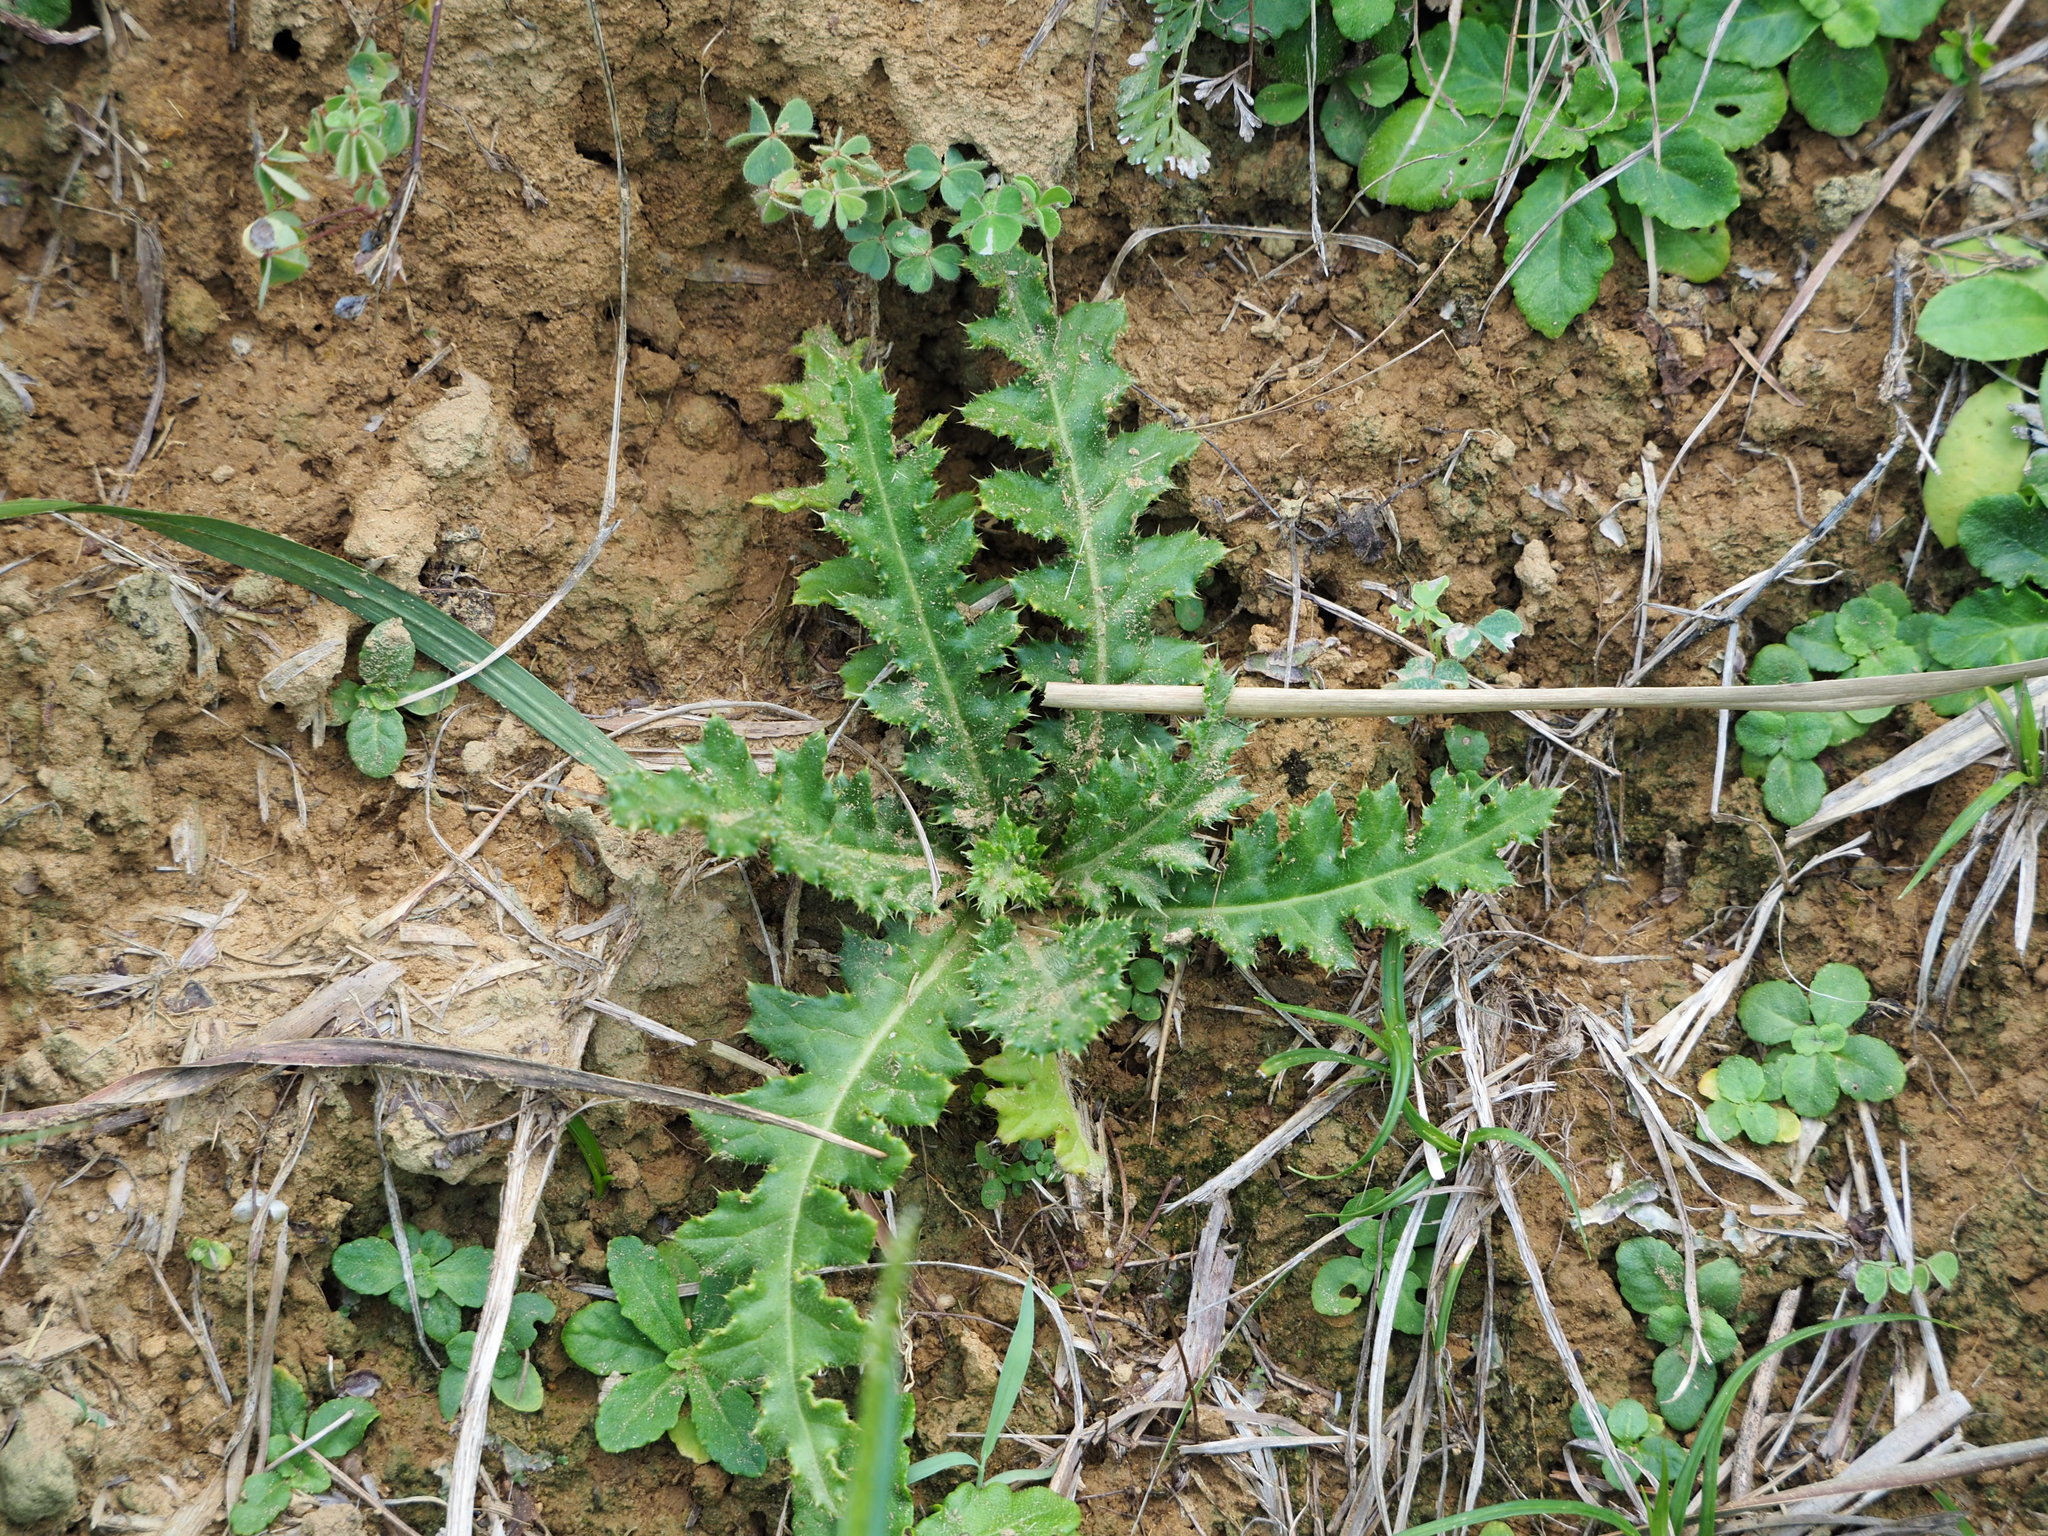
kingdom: Plantae
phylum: Tracheophyta
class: Magnoliopsida
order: Asterales
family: Asteraceae
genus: Cirsium
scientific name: Cirsium japonicum
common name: Japanese thistle
